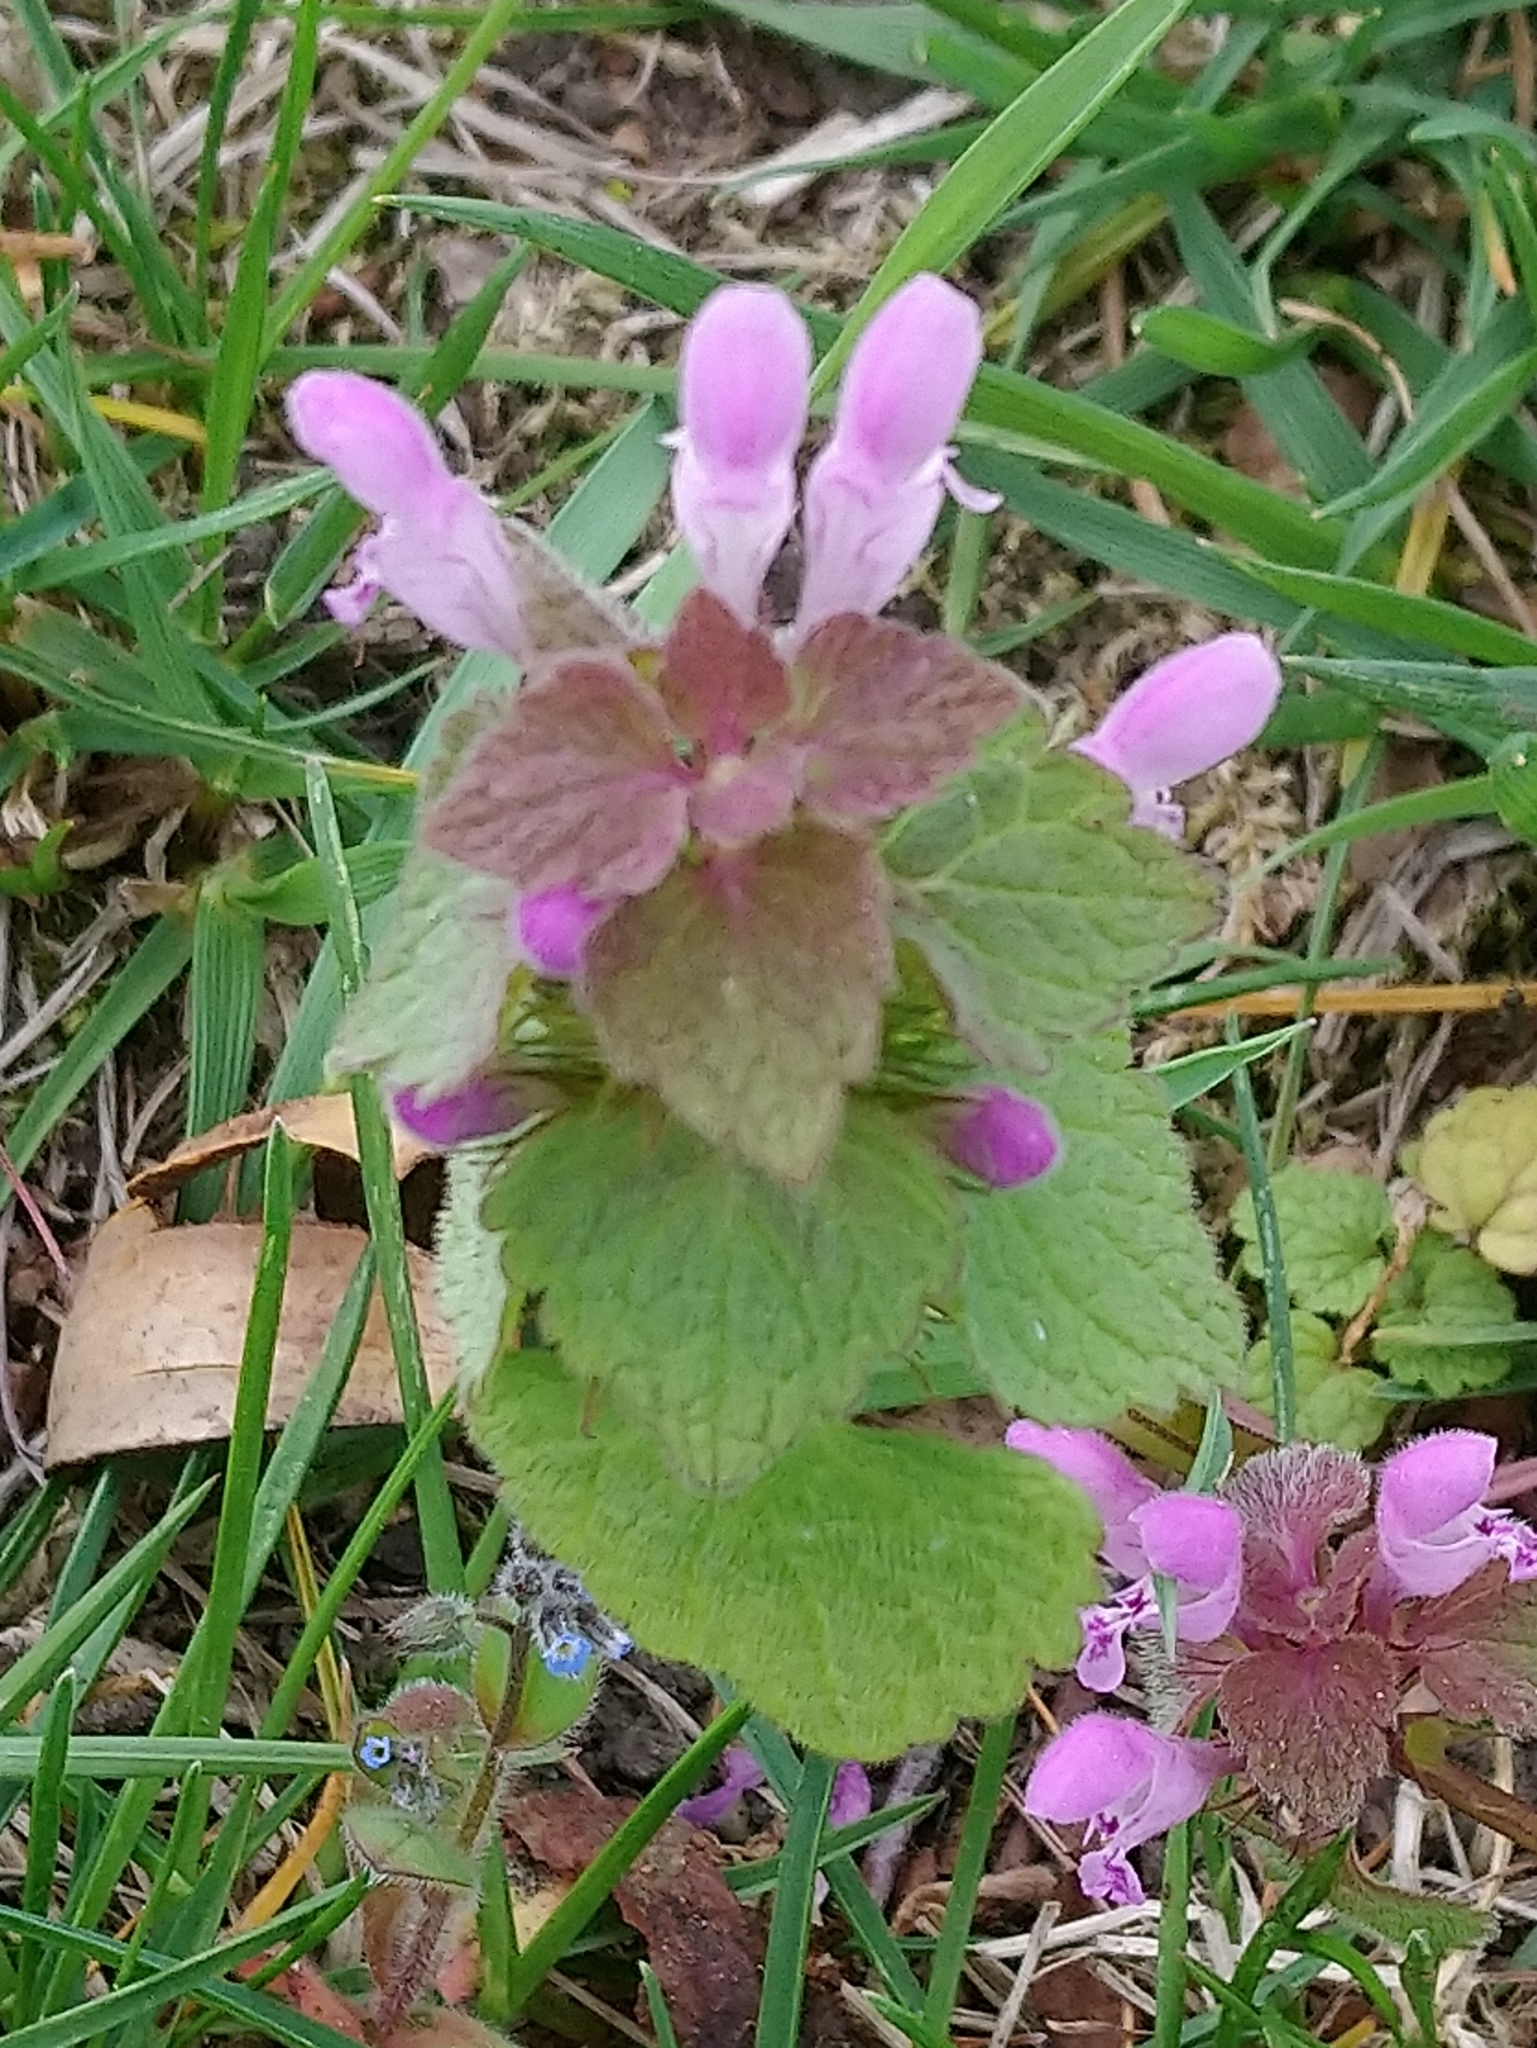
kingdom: Plantae
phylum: Tracheophyta
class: Magnoliopsida
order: Lamiales
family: Lamiaceae
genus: Lamium
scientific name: Lamium purpureum
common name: Red dead-nettle
